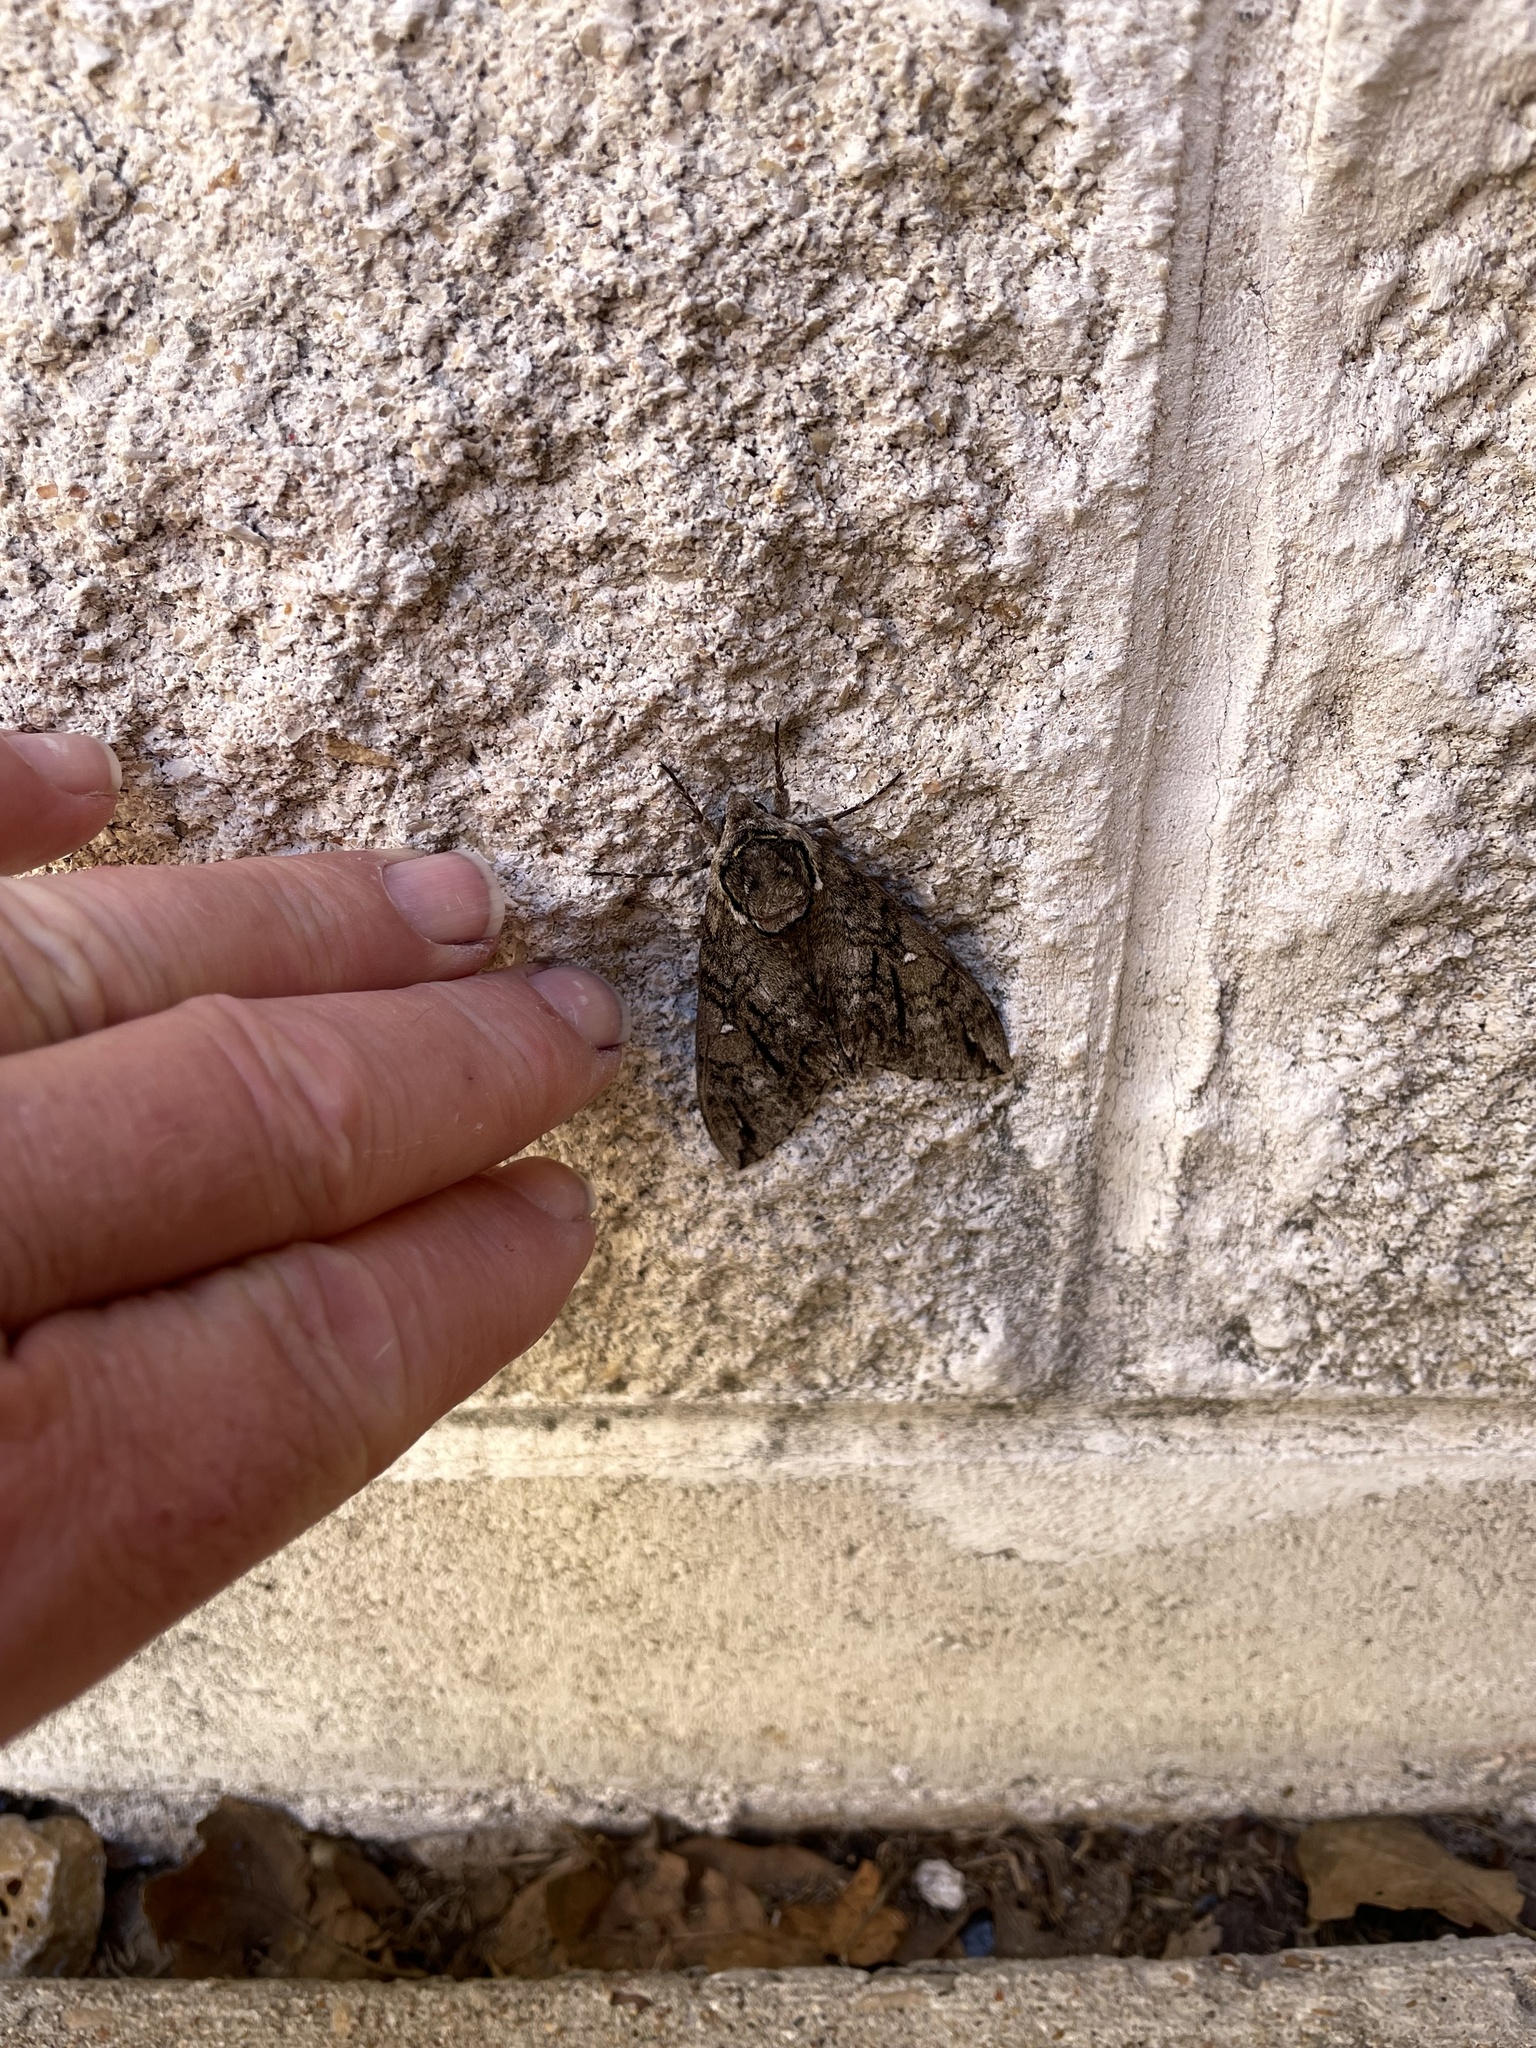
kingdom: Animalia
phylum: Arthropoda
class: Insecta
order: Lepidoptera
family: Sphingidae
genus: Ceratomia
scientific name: Ceratomia undulosa
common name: Waved sphinx
